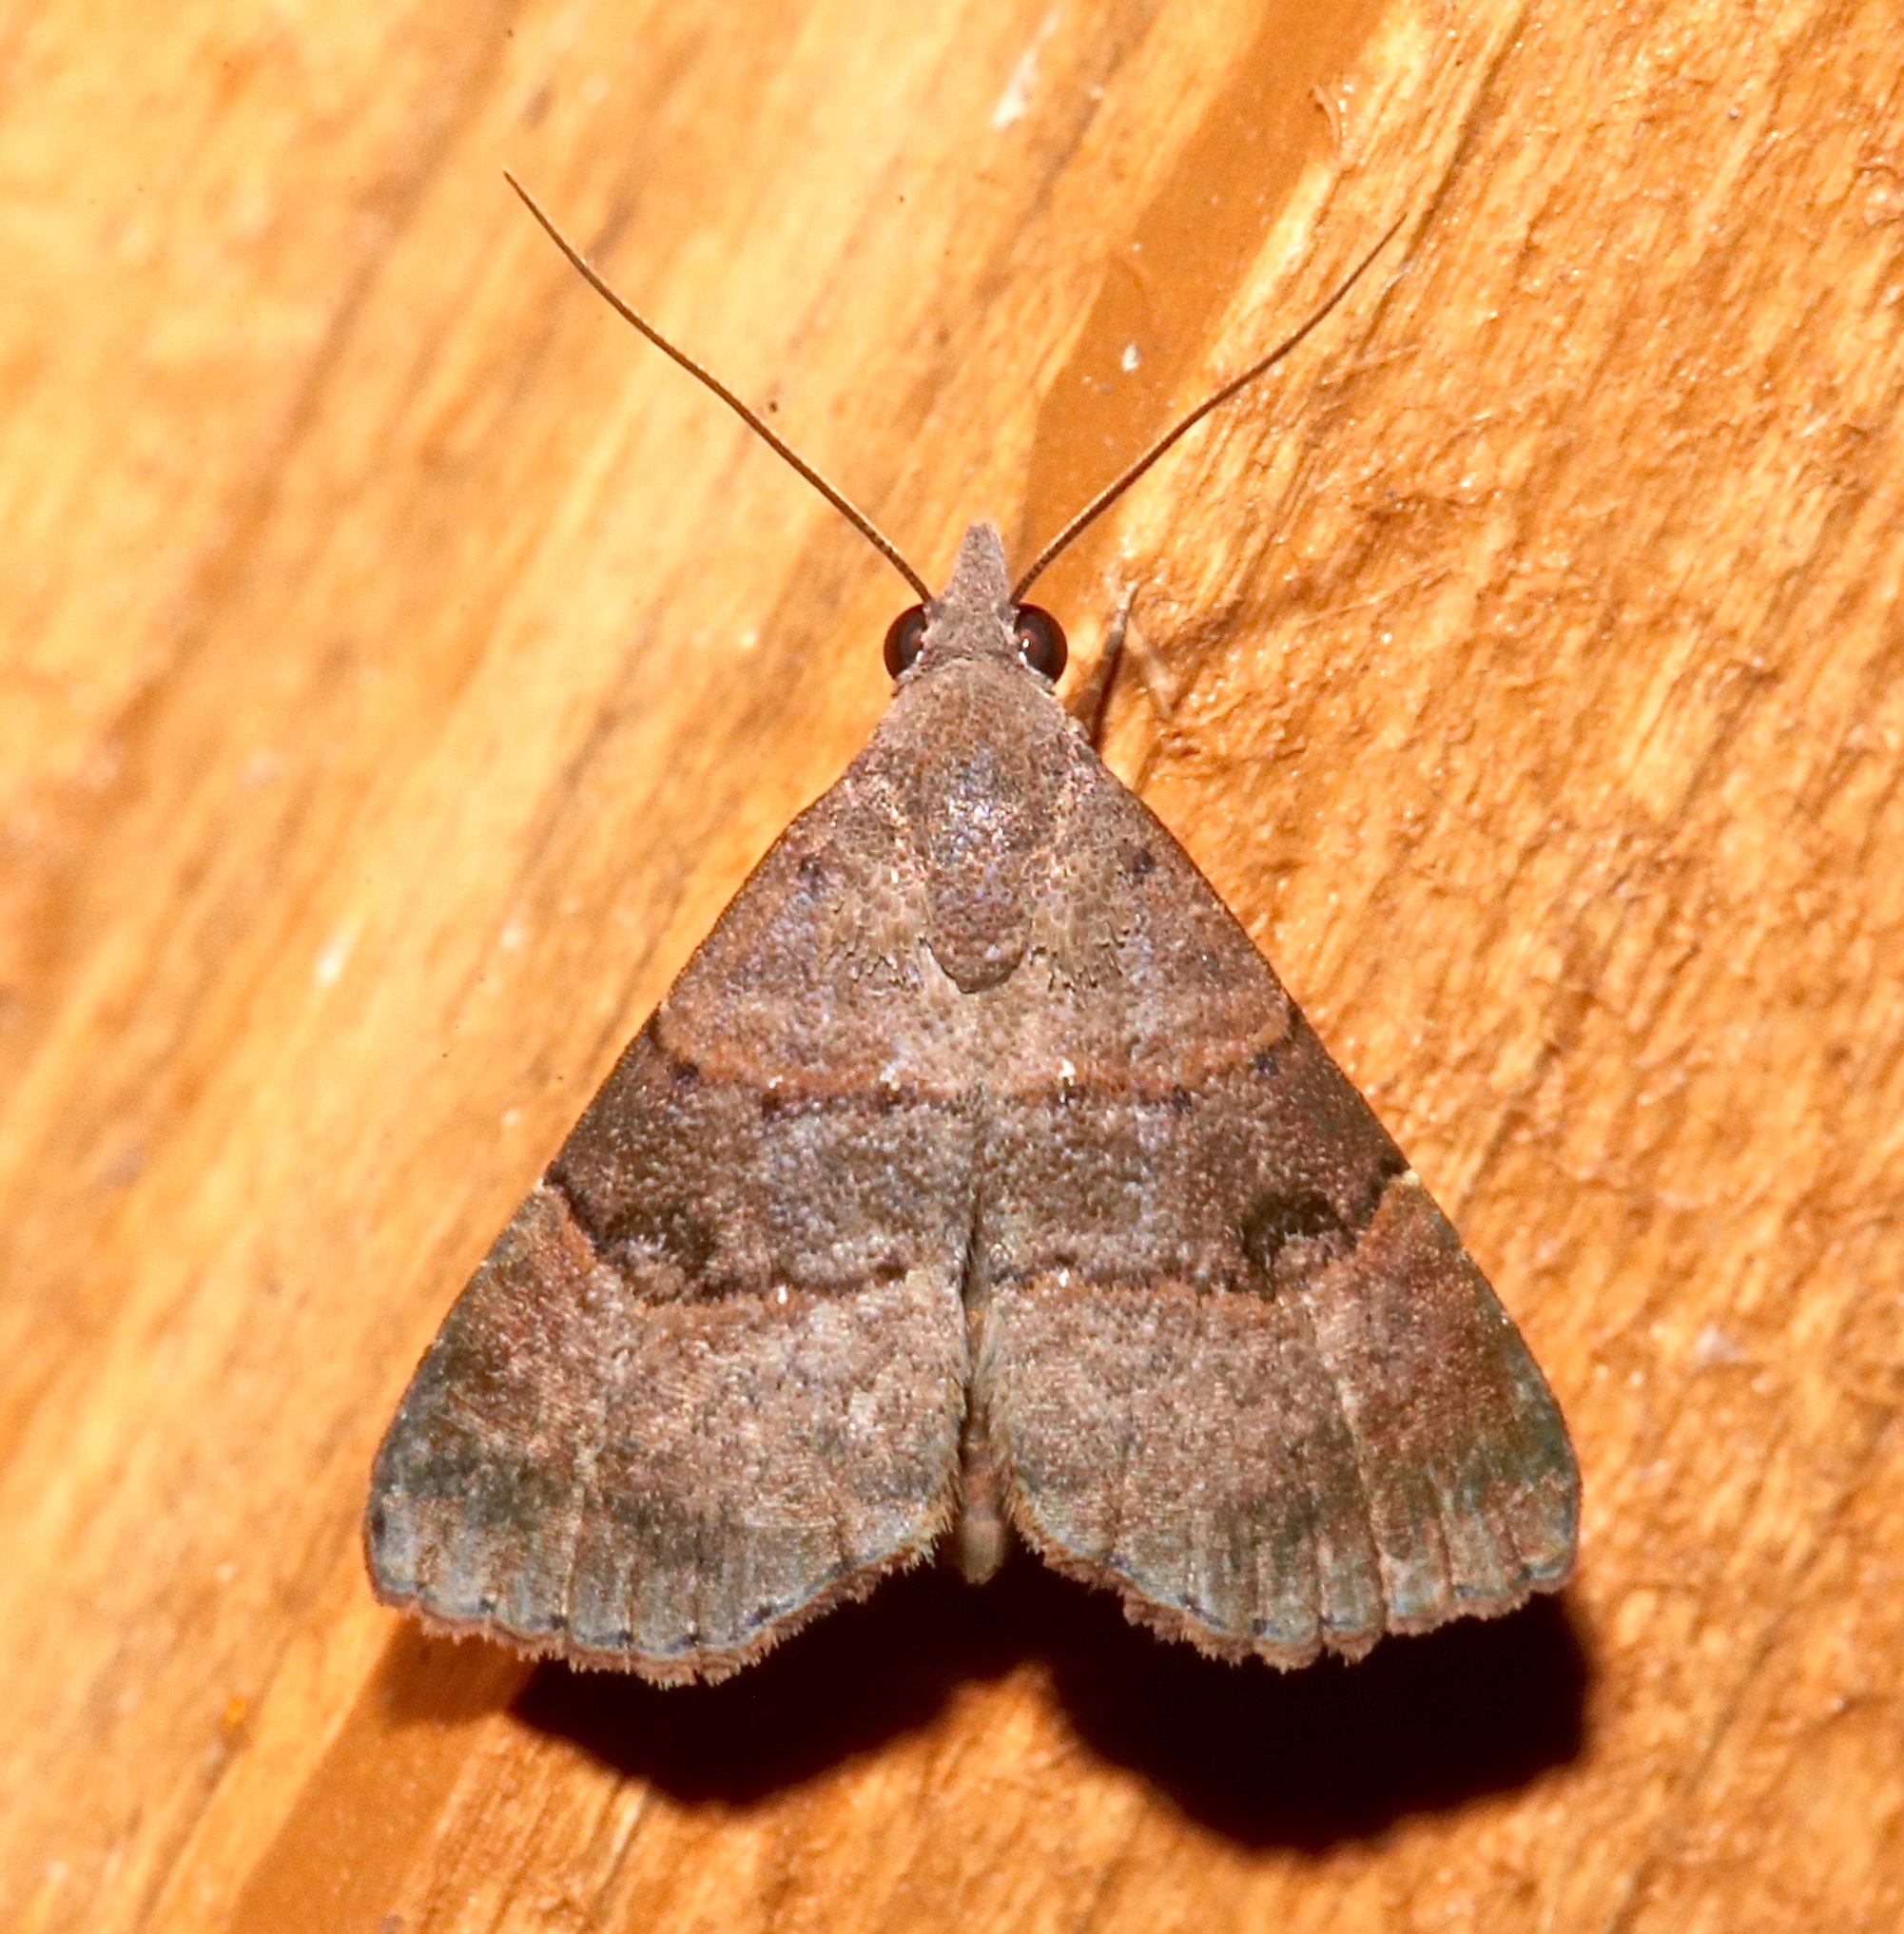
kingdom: Animalia
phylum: Arthropoda
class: Insecta
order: Lepidoptera
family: Noctuidae
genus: Hormoschista
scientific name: Hormoschista latipalpis
